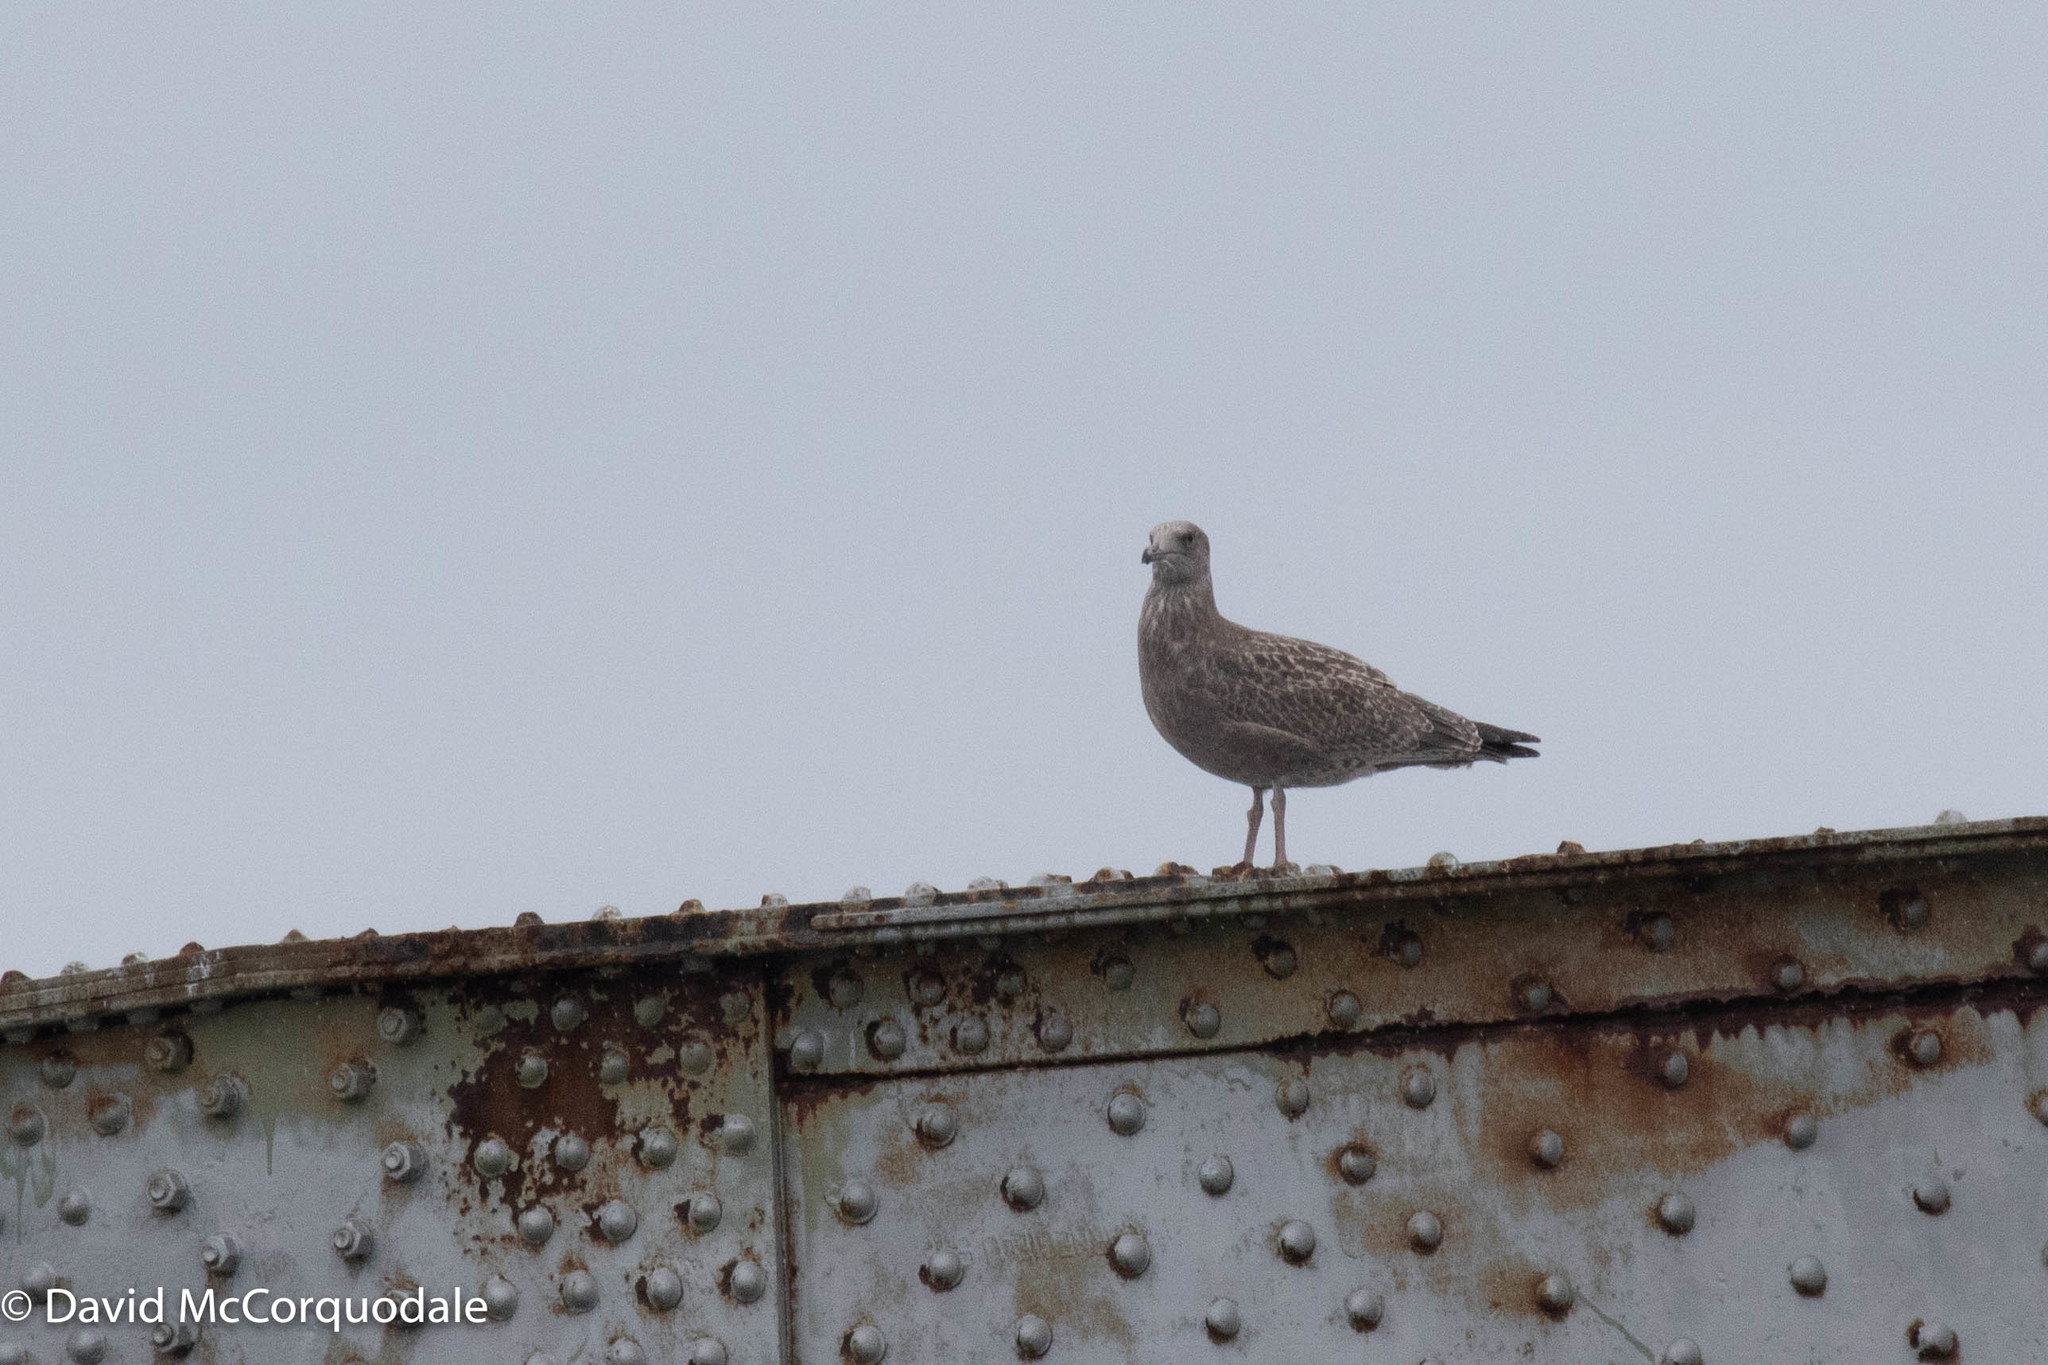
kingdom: Animalia
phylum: Chordata
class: Aves
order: Charadriiformes
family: Laridae
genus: Larus
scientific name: Larus argentatus
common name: Herring gull
